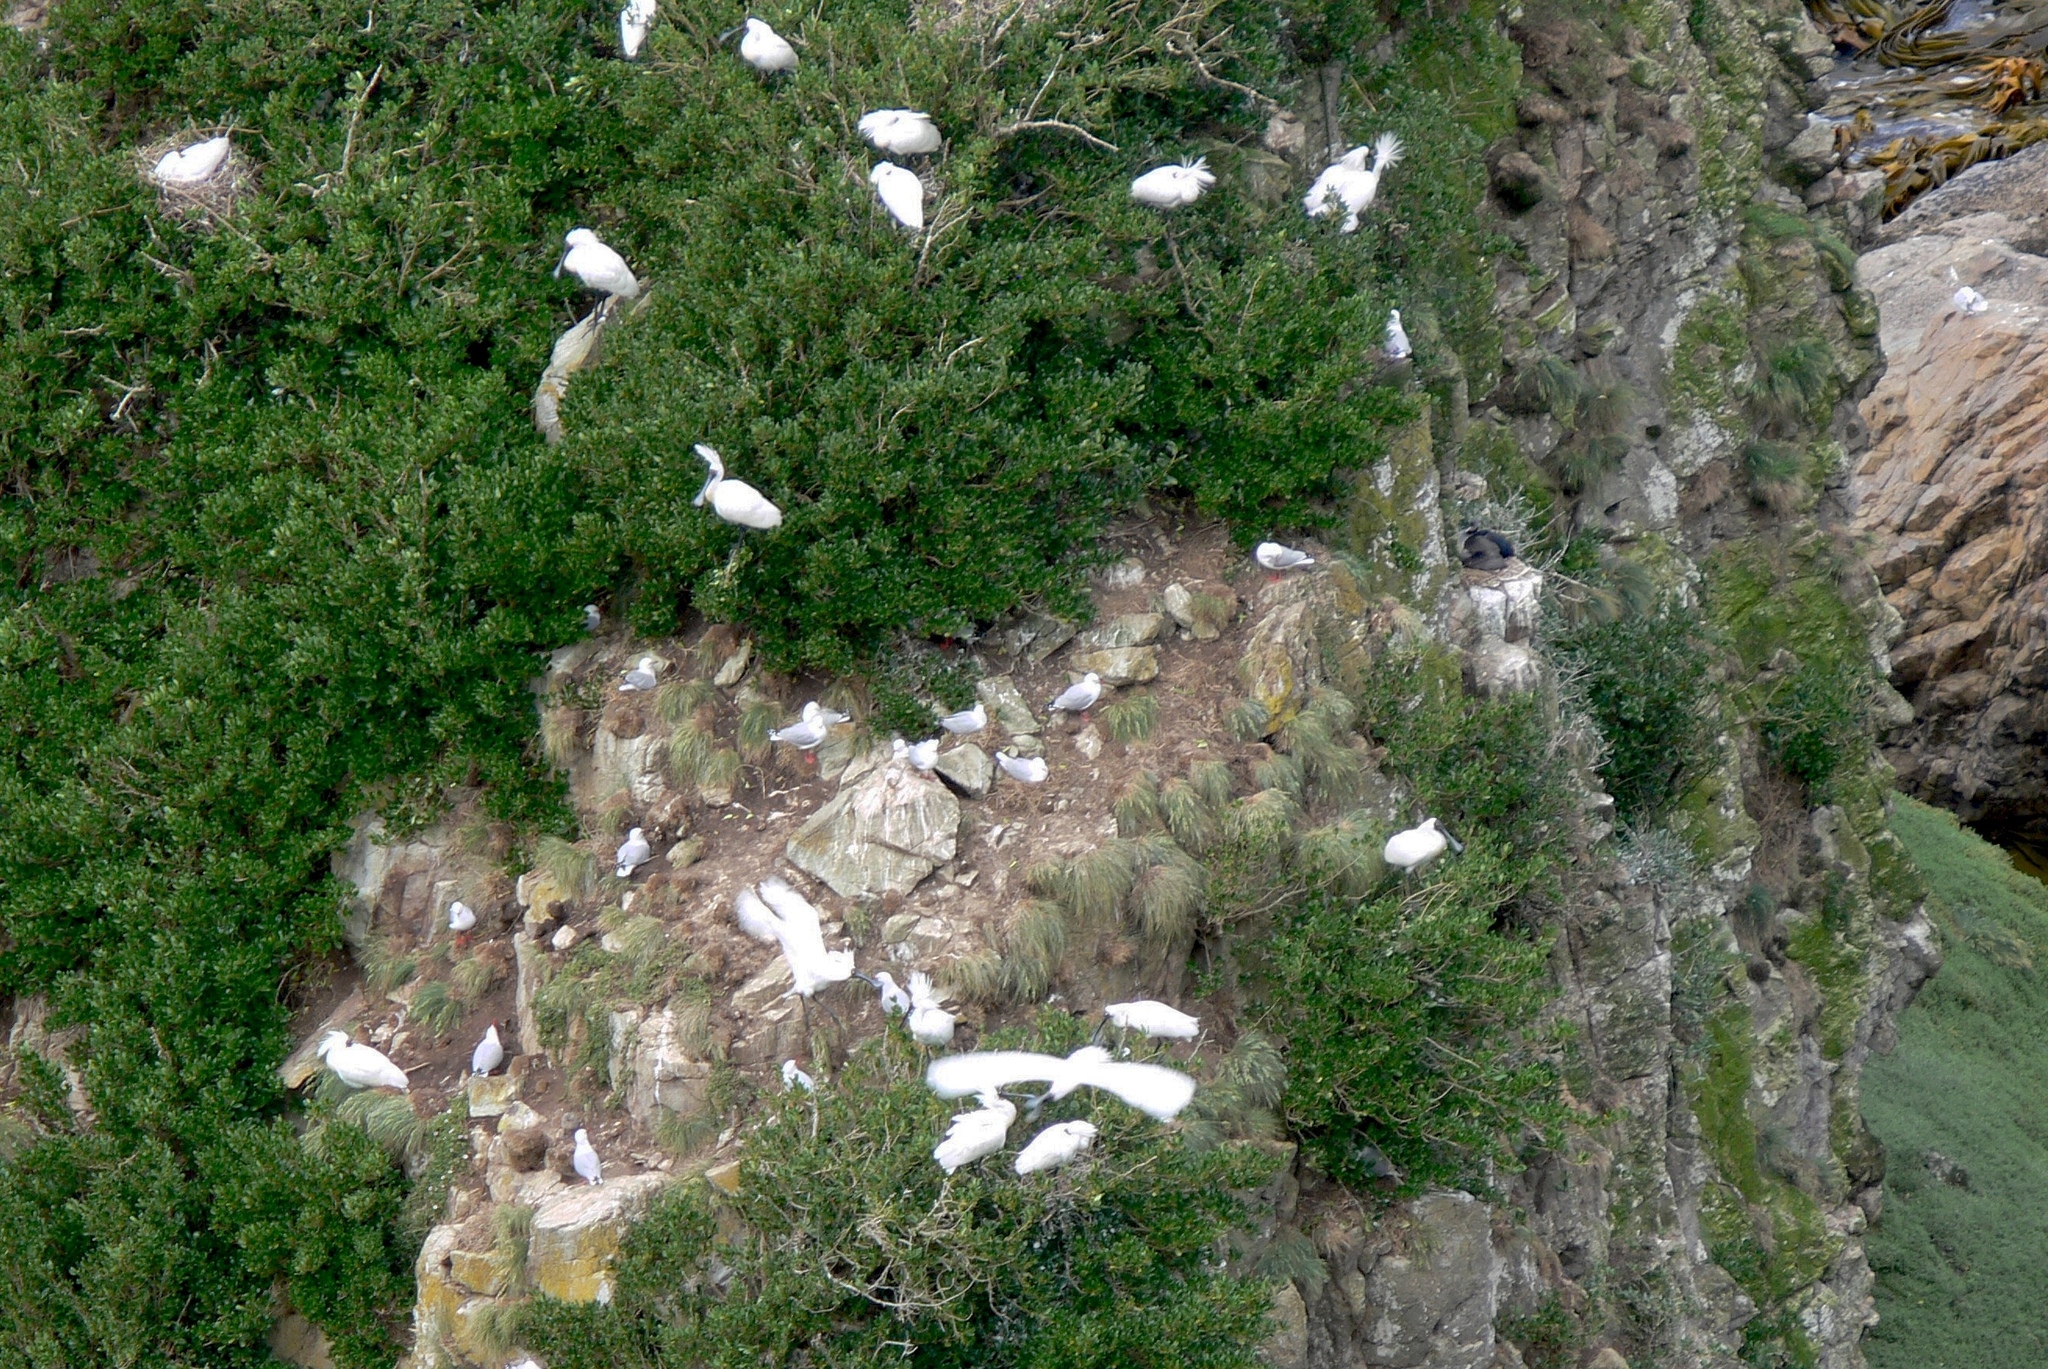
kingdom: Animalia
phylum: Chordata
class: Aves
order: Pelecaniformes
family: Threskiornithidae
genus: Platalea
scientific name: Platalea regia
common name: Royal spoonbill
